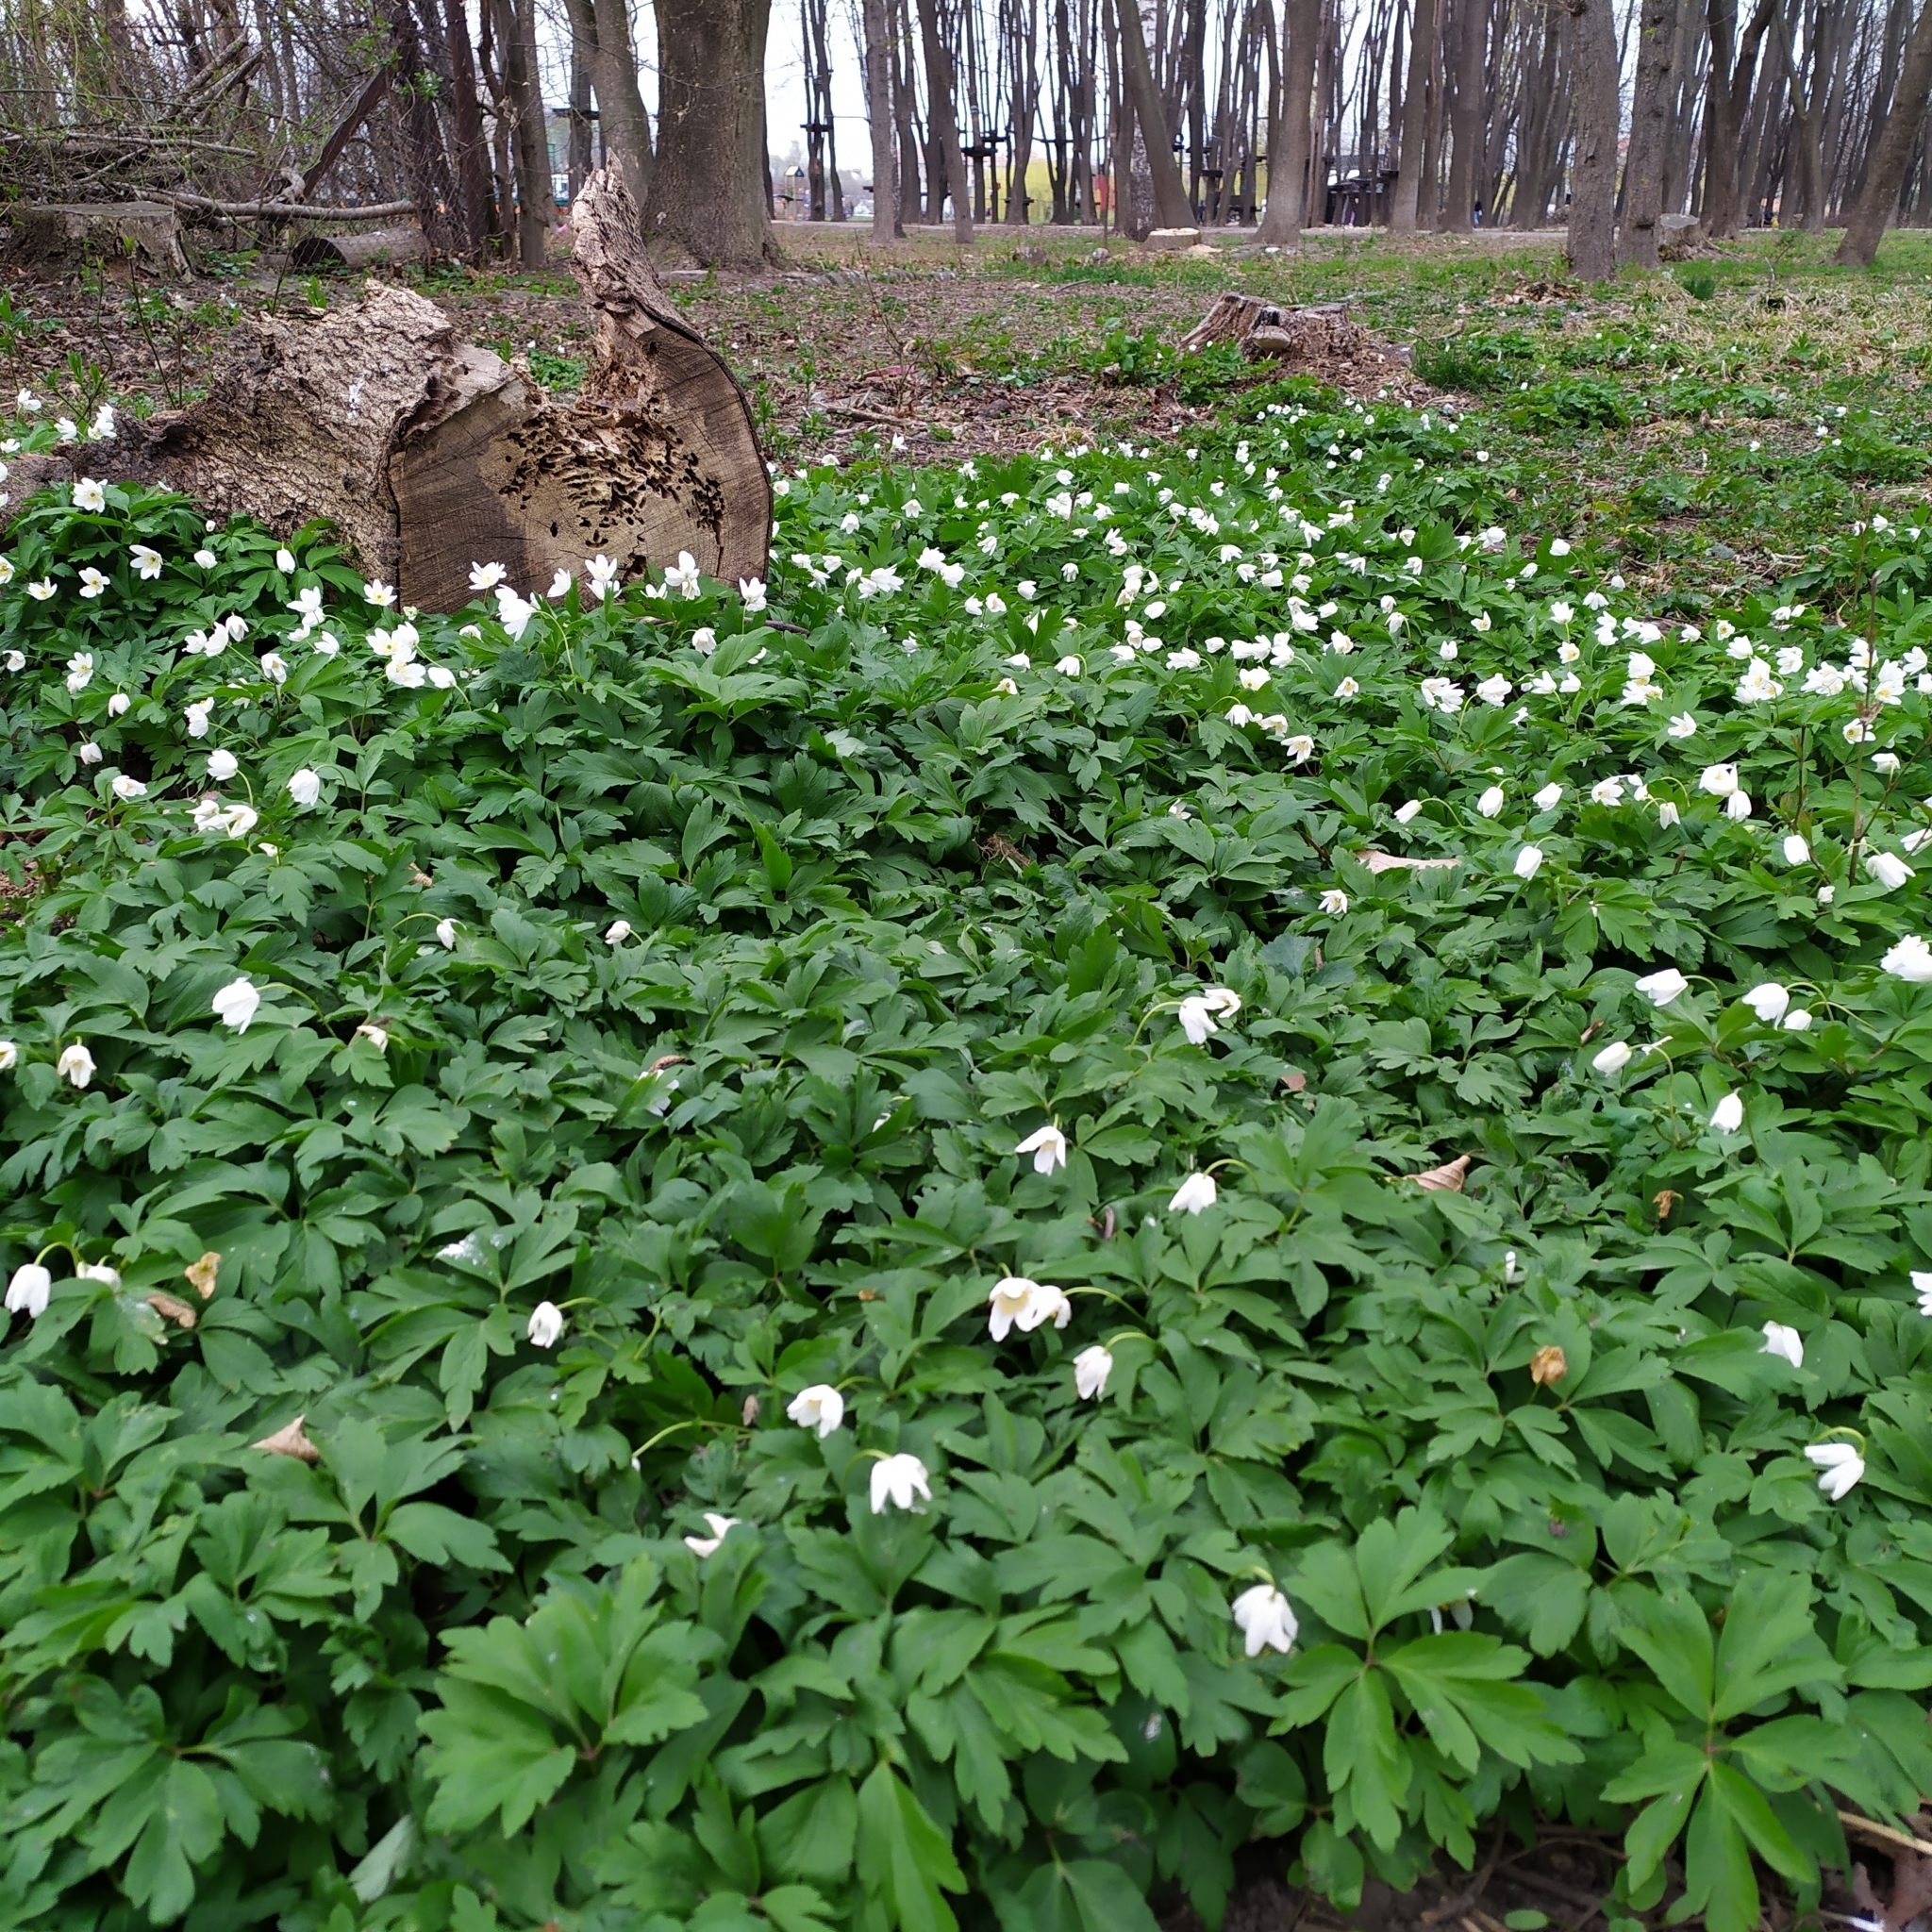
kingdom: Plantae
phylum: Tracheophyta
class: Magnoliopsida
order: Ranunculales
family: Ranunculaceae
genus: Anemone
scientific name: Anemone nemorosa
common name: Wood anemone
